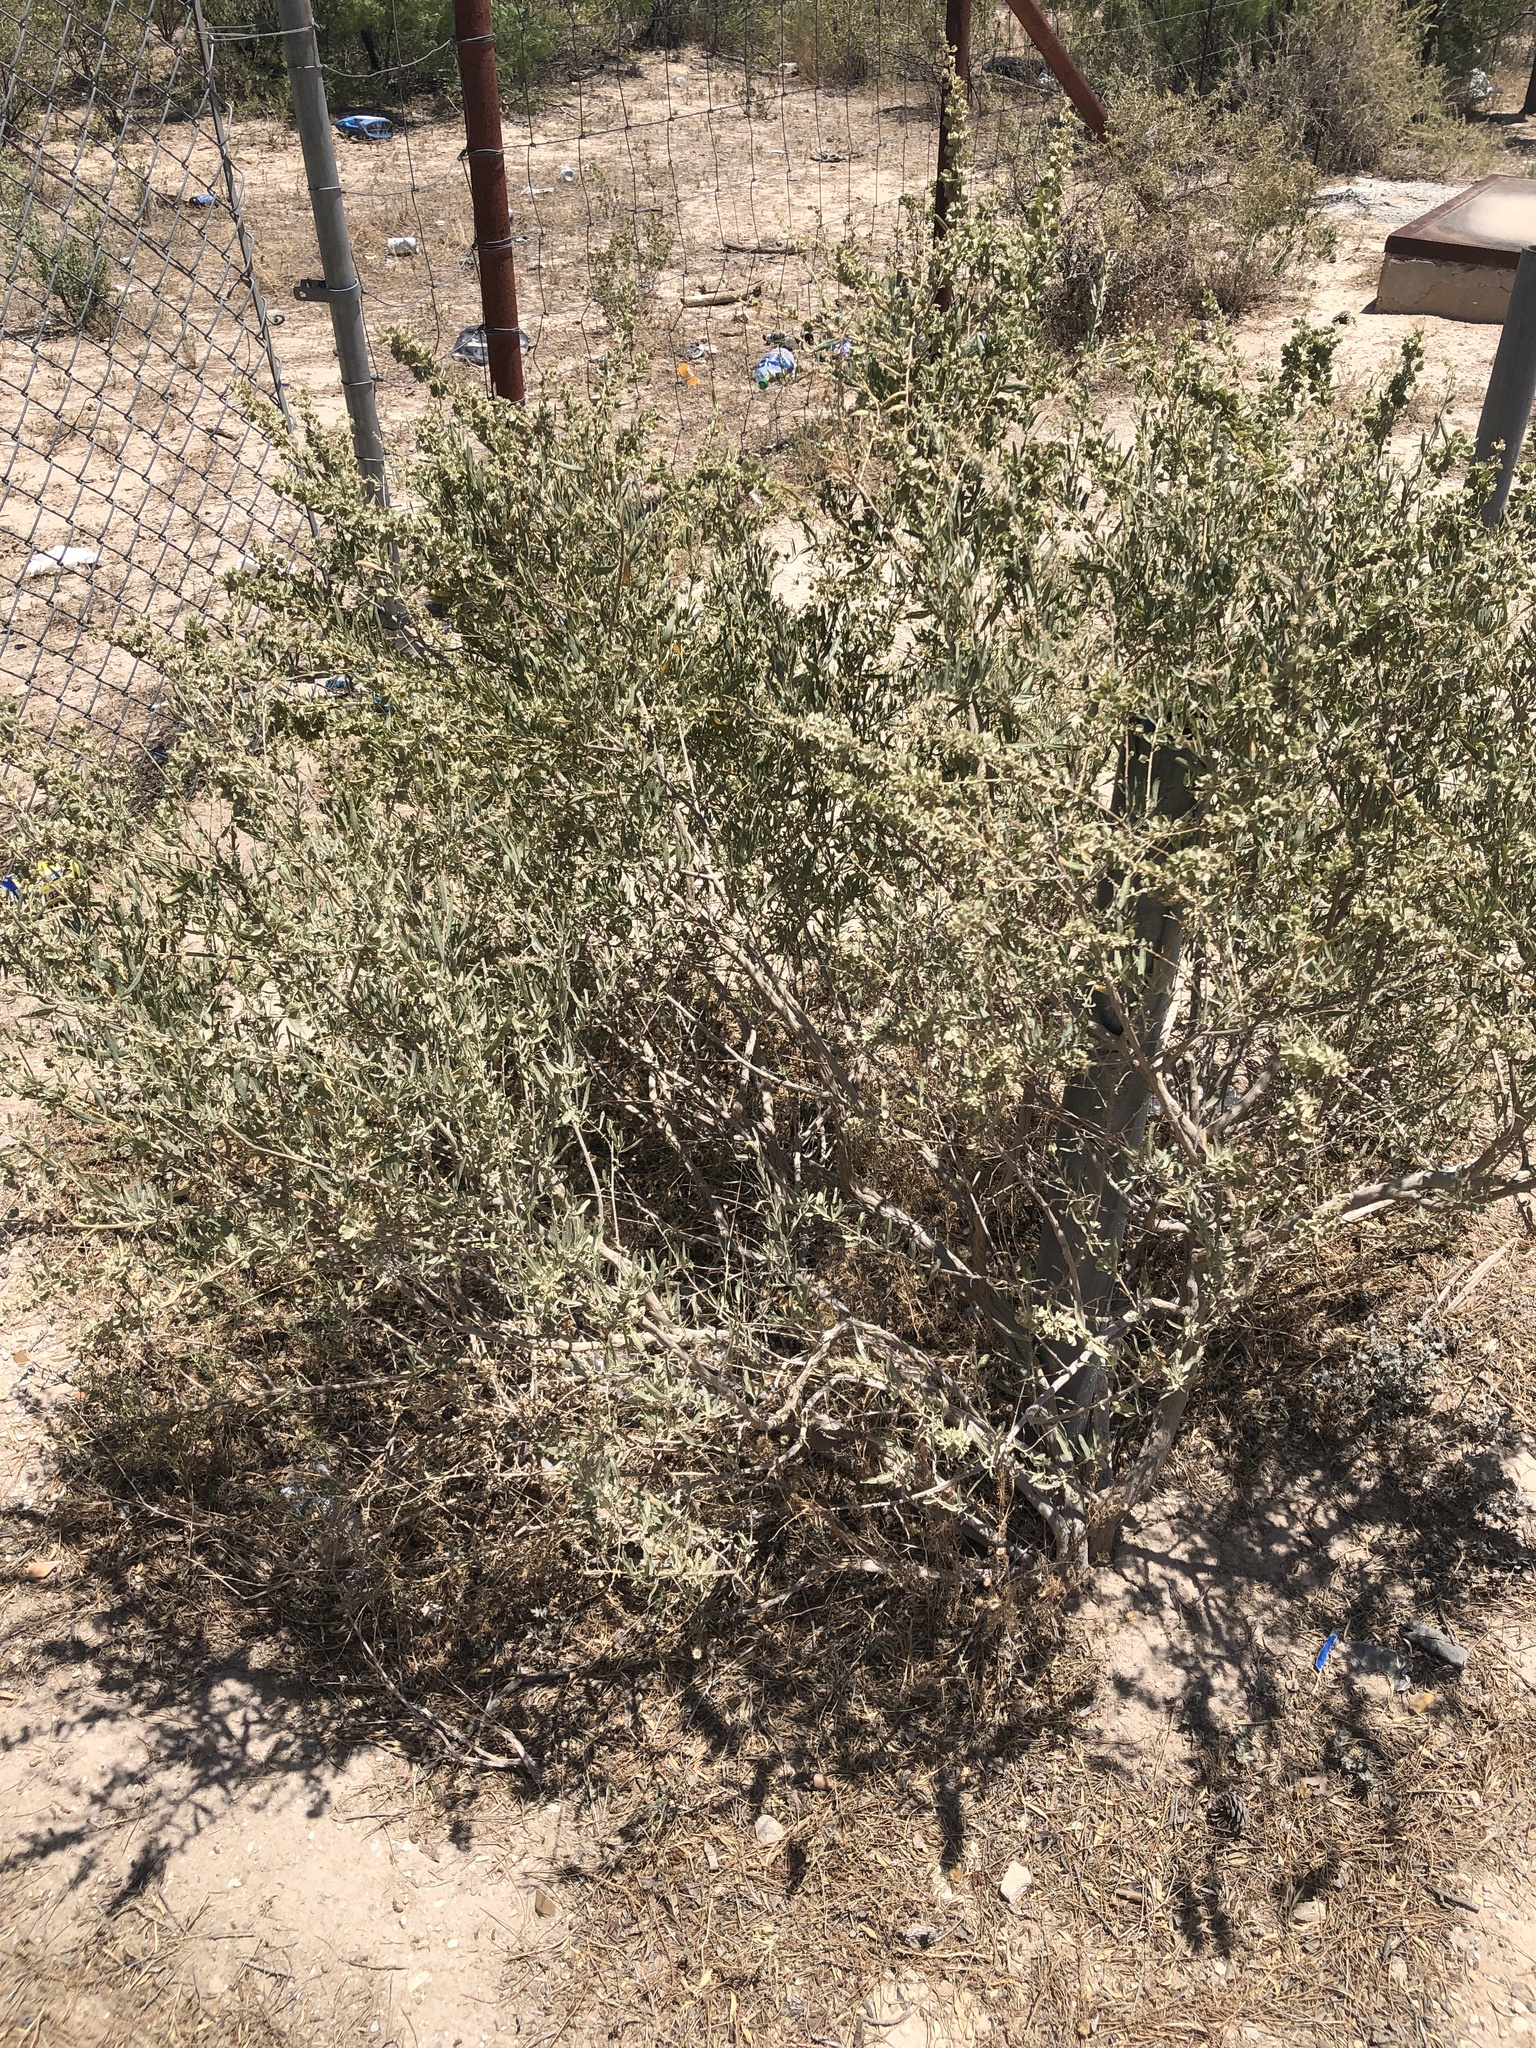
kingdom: Plantae
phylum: Tracheophyta
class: Magnoliopsida
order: Caryophyllales
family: Amaranthaceae
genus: Atriplex
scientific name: Atriplex canescens
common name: Four-wing saltbush
